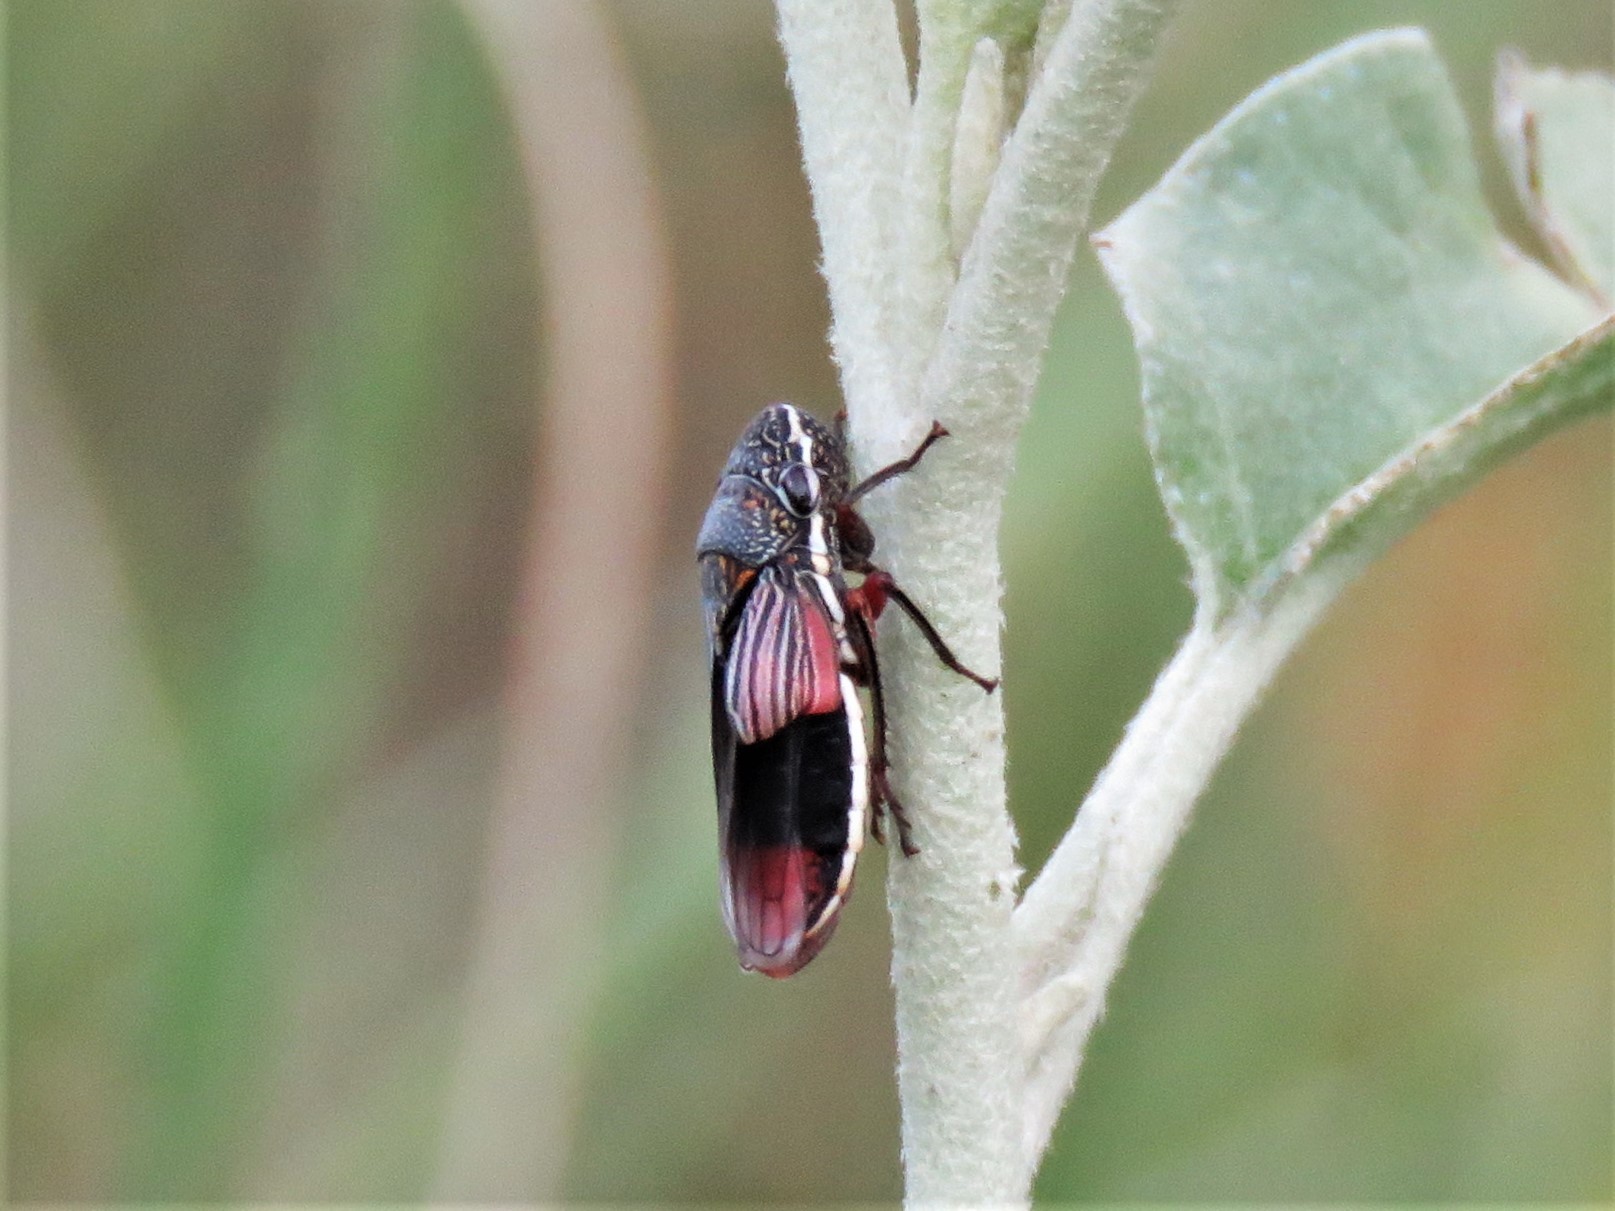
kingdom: Animalia
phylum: Arthropoda
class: Insecta
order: Hemiptera
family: Cicadellidae
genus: Cuerna
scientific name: Cuerna costalis
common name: Lateral-lined sharpshooter
